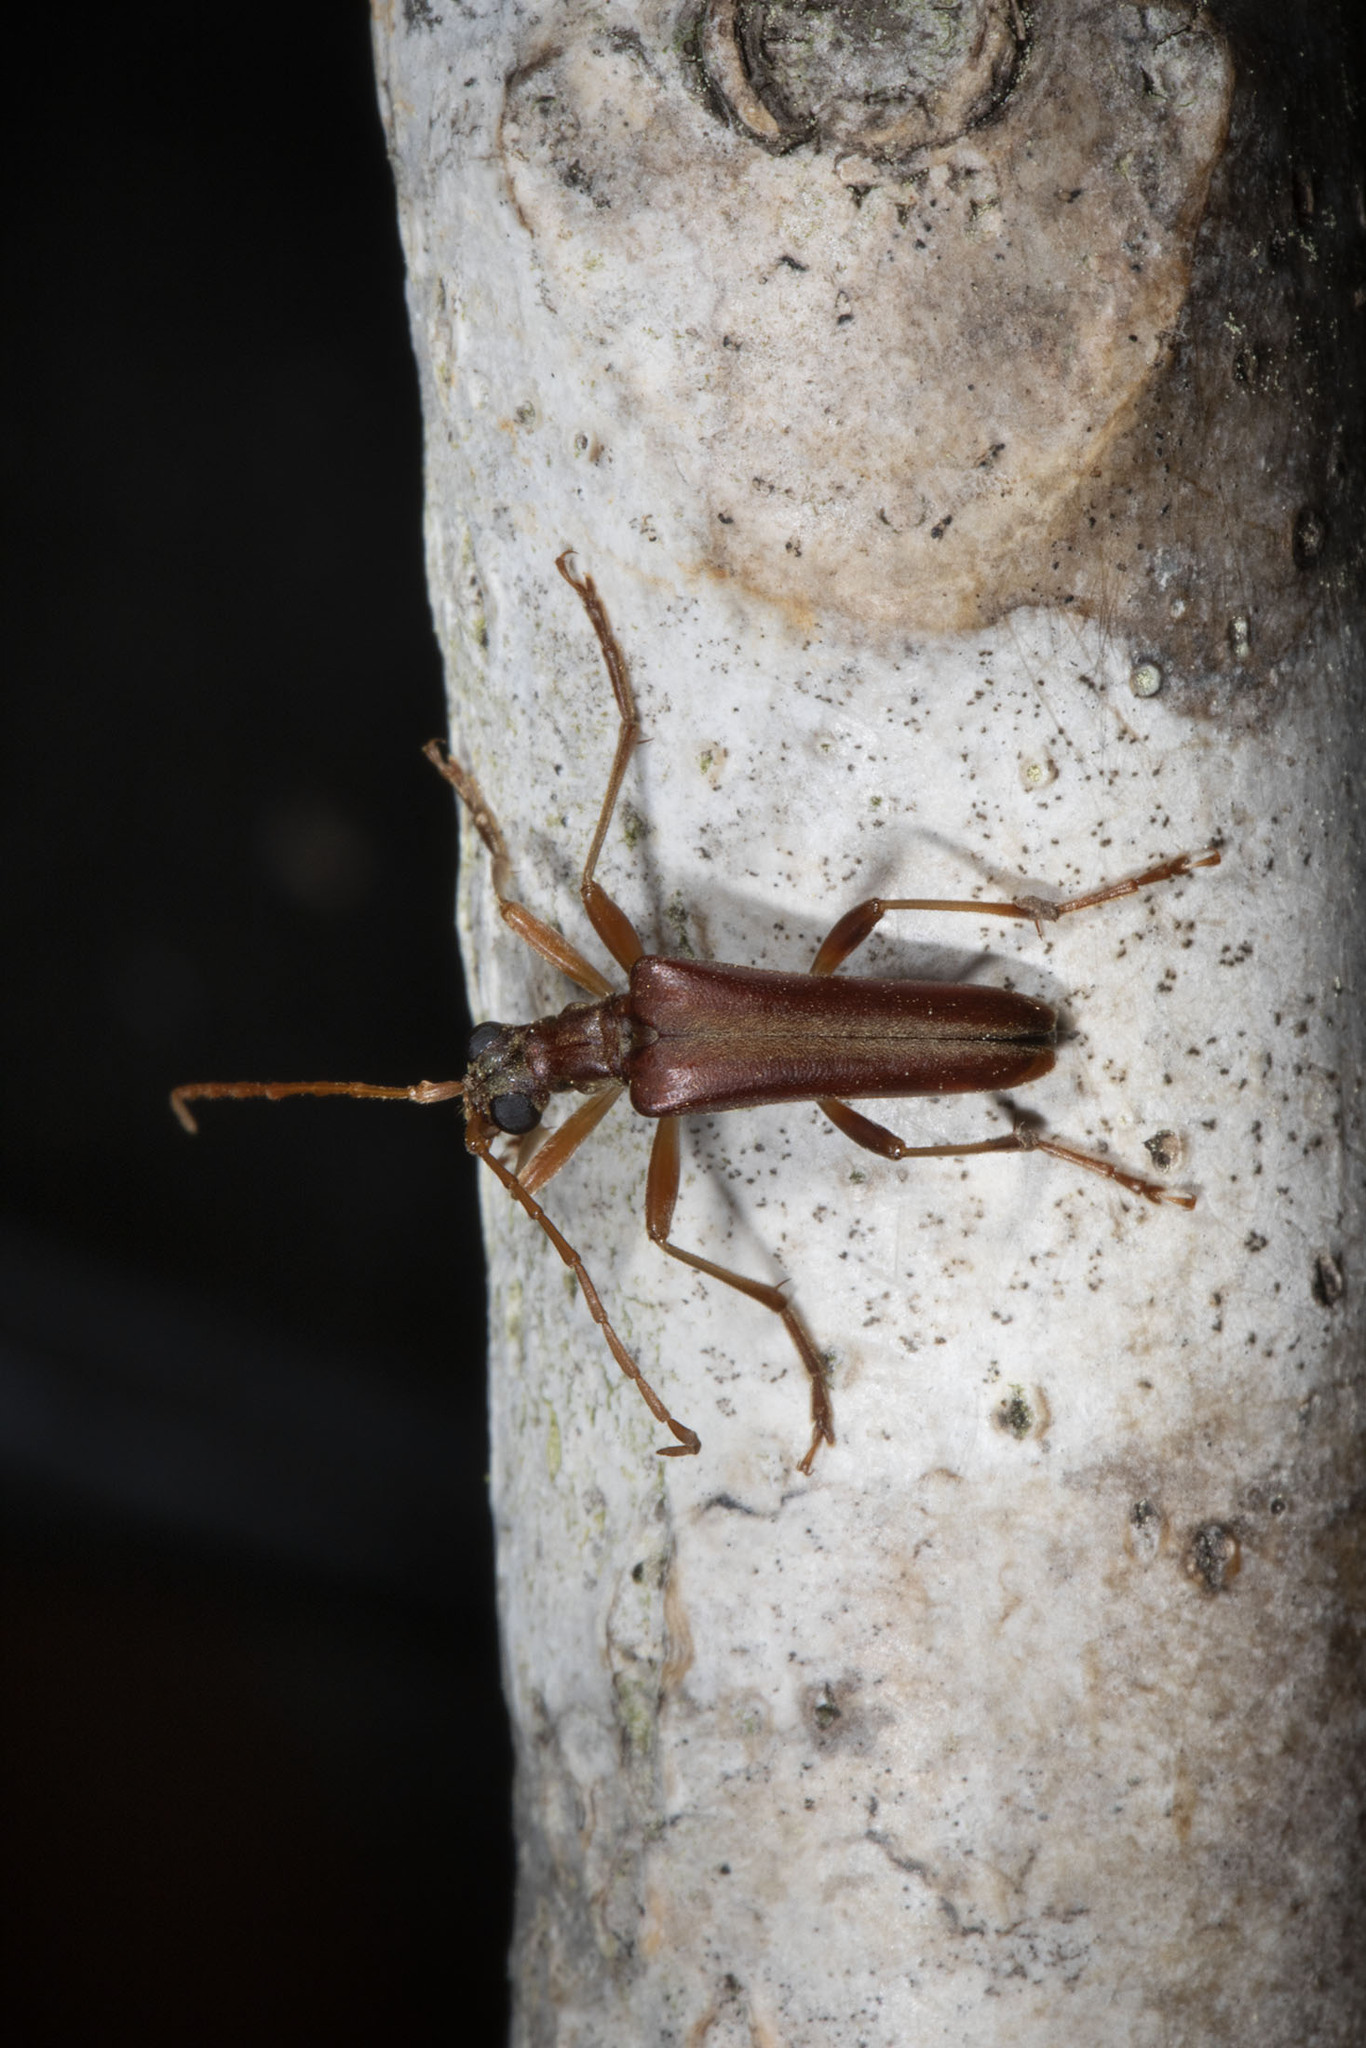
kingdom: Animalia
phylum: Arthropoda
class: Insecta
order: Coleoptera
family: Cerambycidae
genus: Stenocorus
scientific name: Stenocorus cinnamopterus
